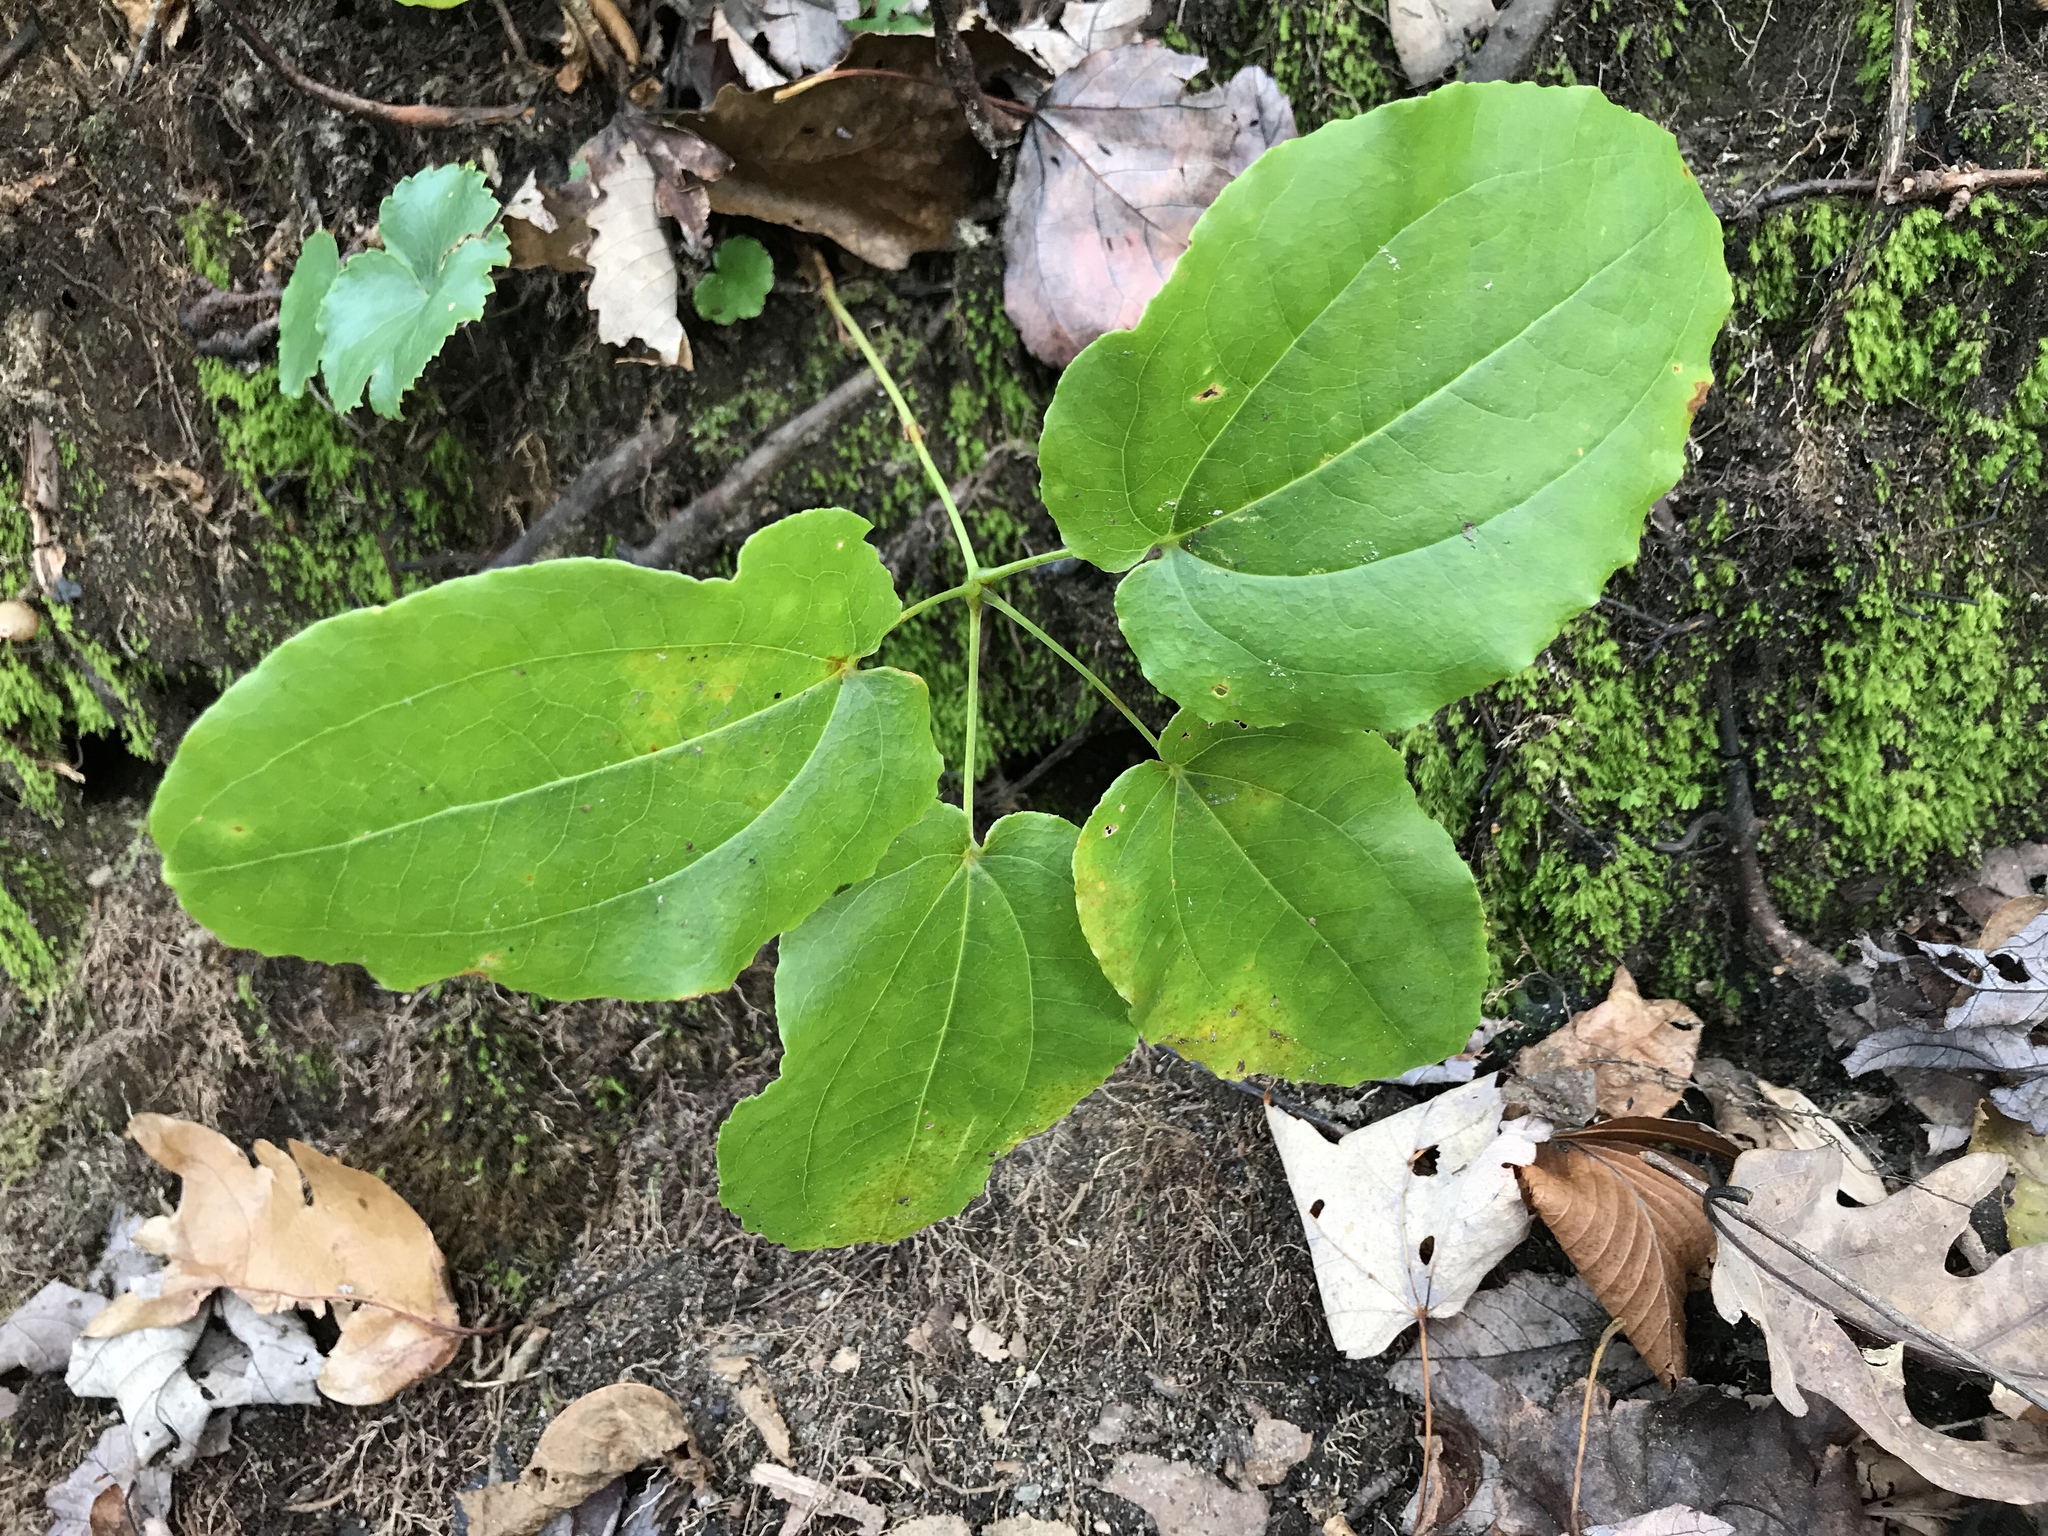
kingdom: Plantae
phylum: Tracheophyta
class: Liliopsida
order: Liliales
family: Smilacaceae
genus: Smilax
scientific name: Smilax biltmoreana
